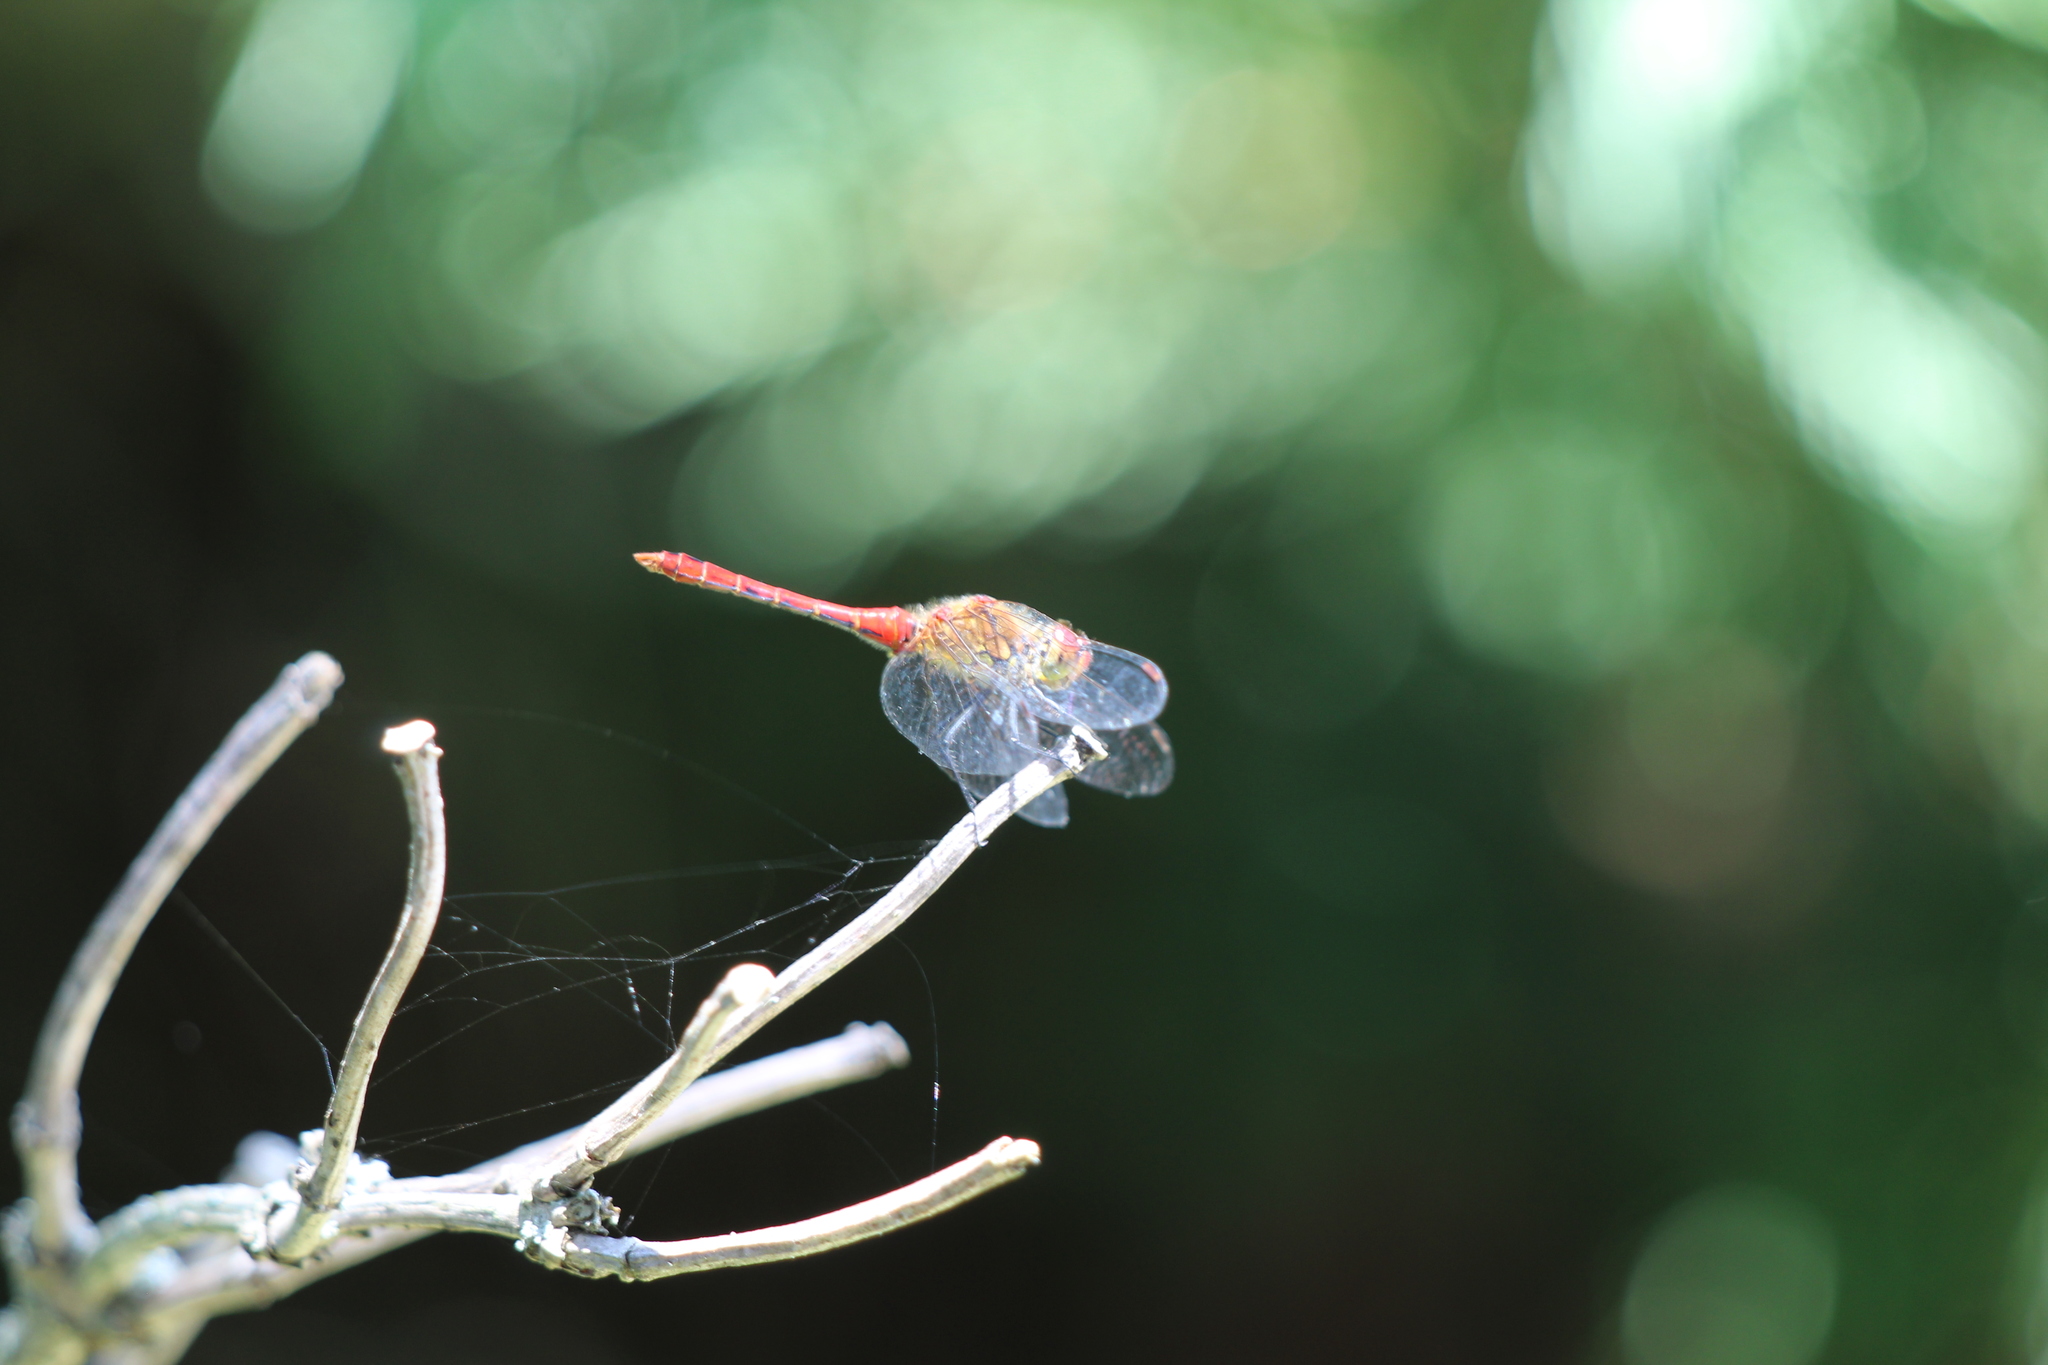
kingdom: Animalia
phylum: Arthropoda
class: Insecta
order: Odonata
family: Libellulidae
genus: Sympetrum
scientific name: Sympetrum sanguineum
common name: Ruddy darter
